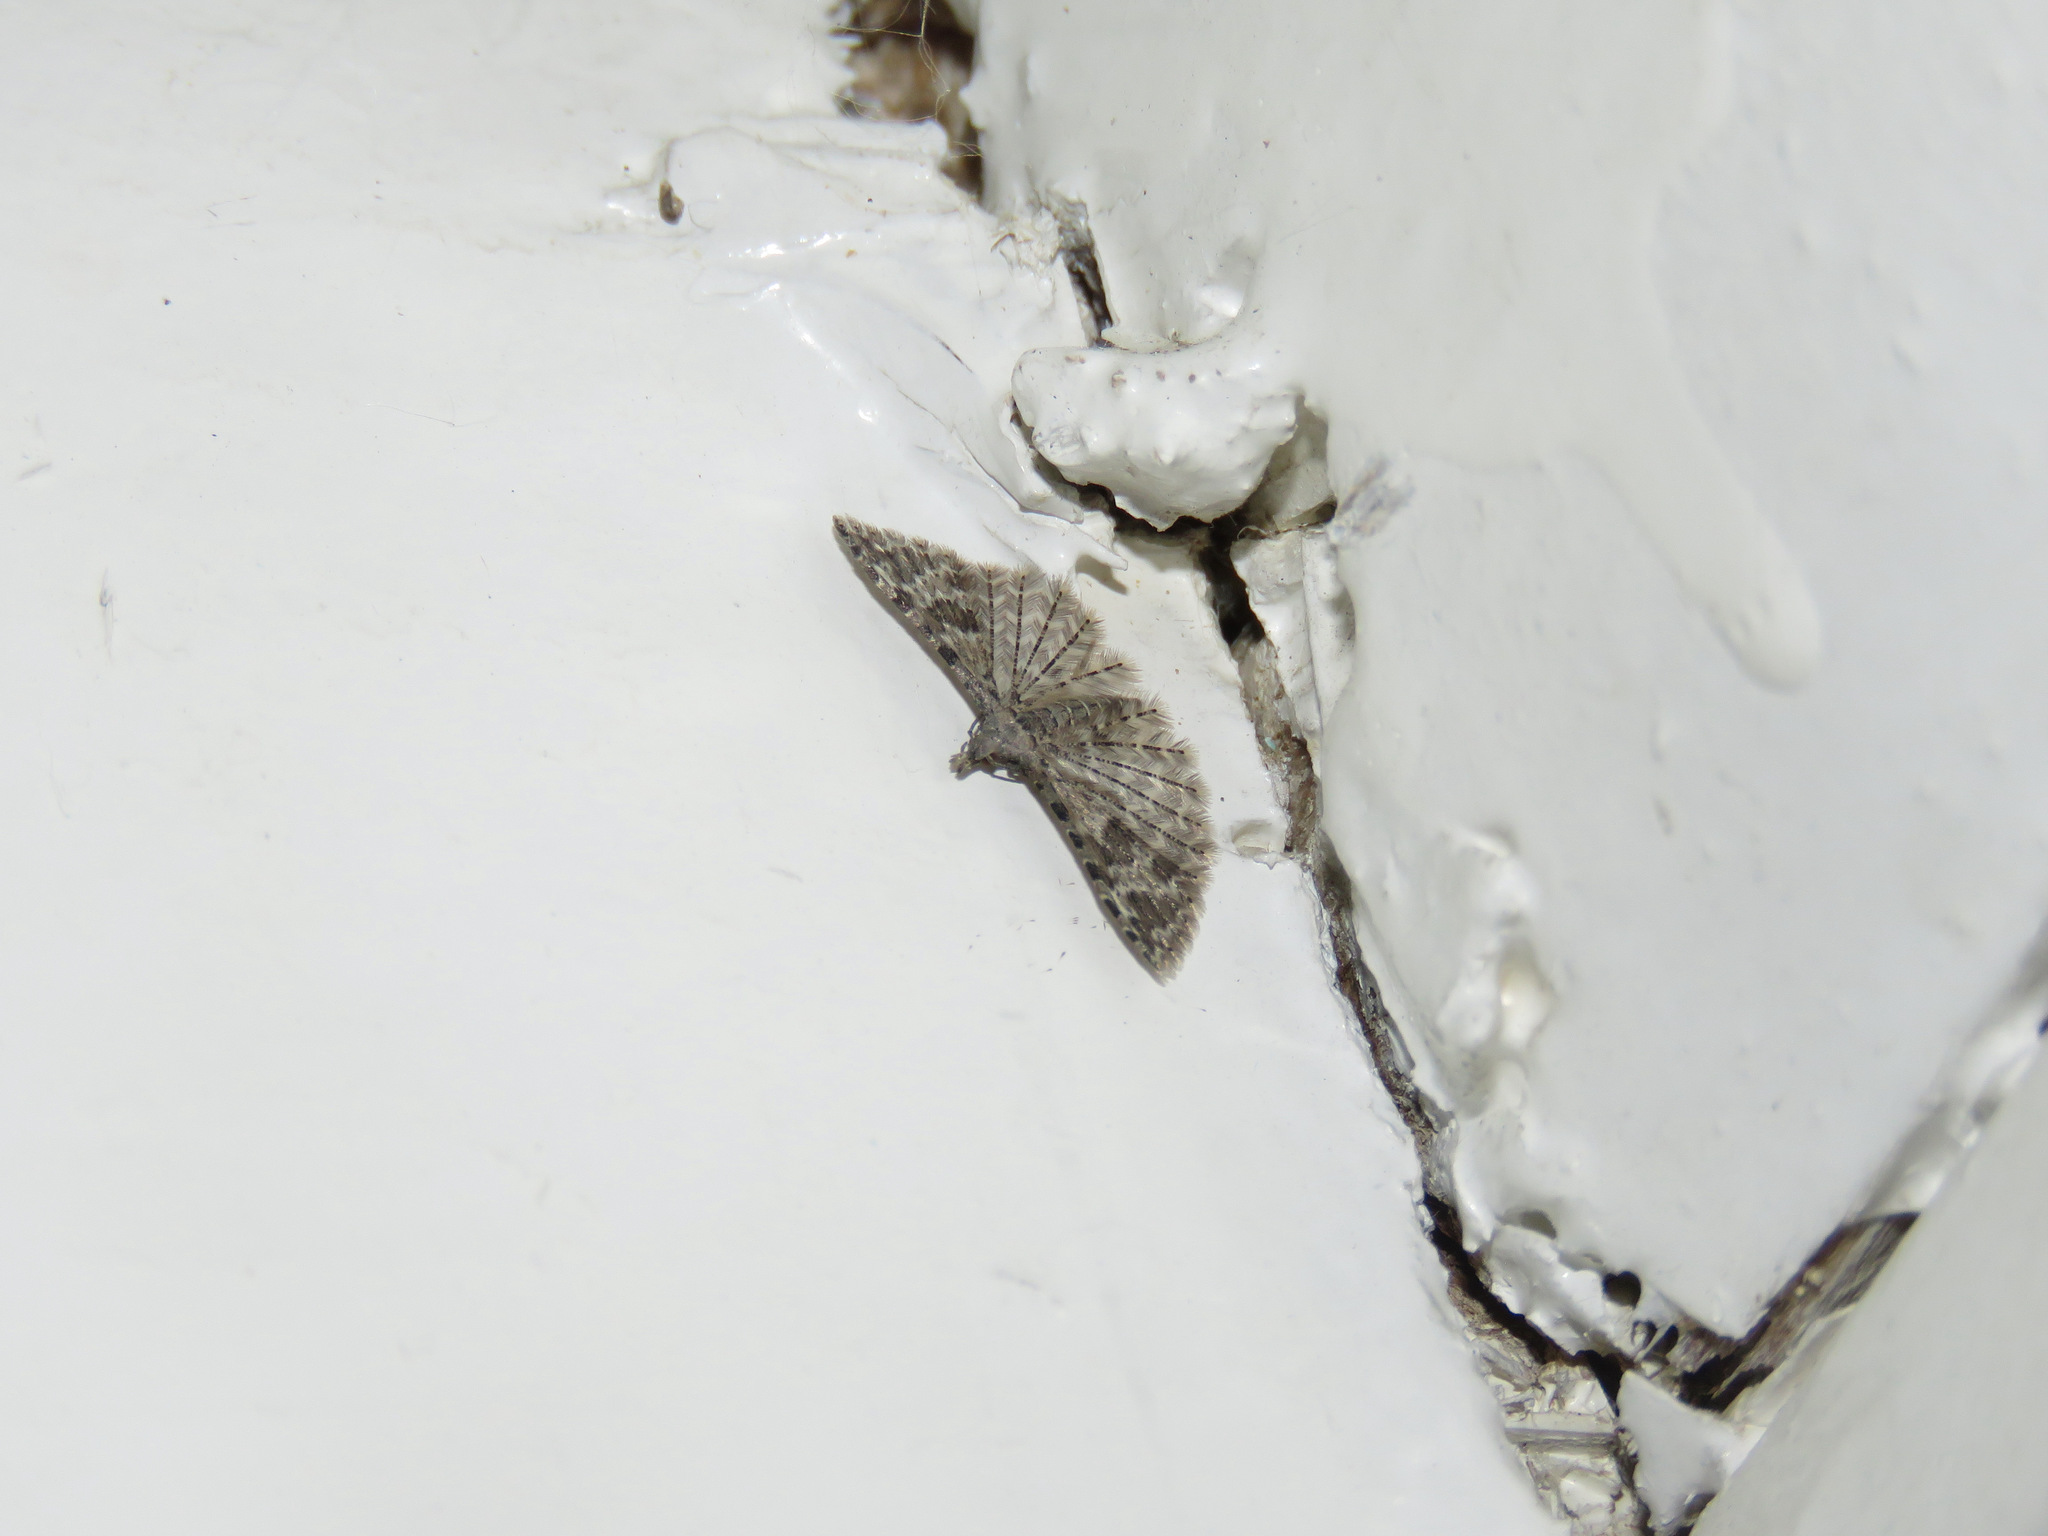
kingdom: Animalia
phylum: Arthropoda
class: Insecta
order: Lepidoptera
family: Alucitidae
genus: Alucita
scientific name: Alucita montana
